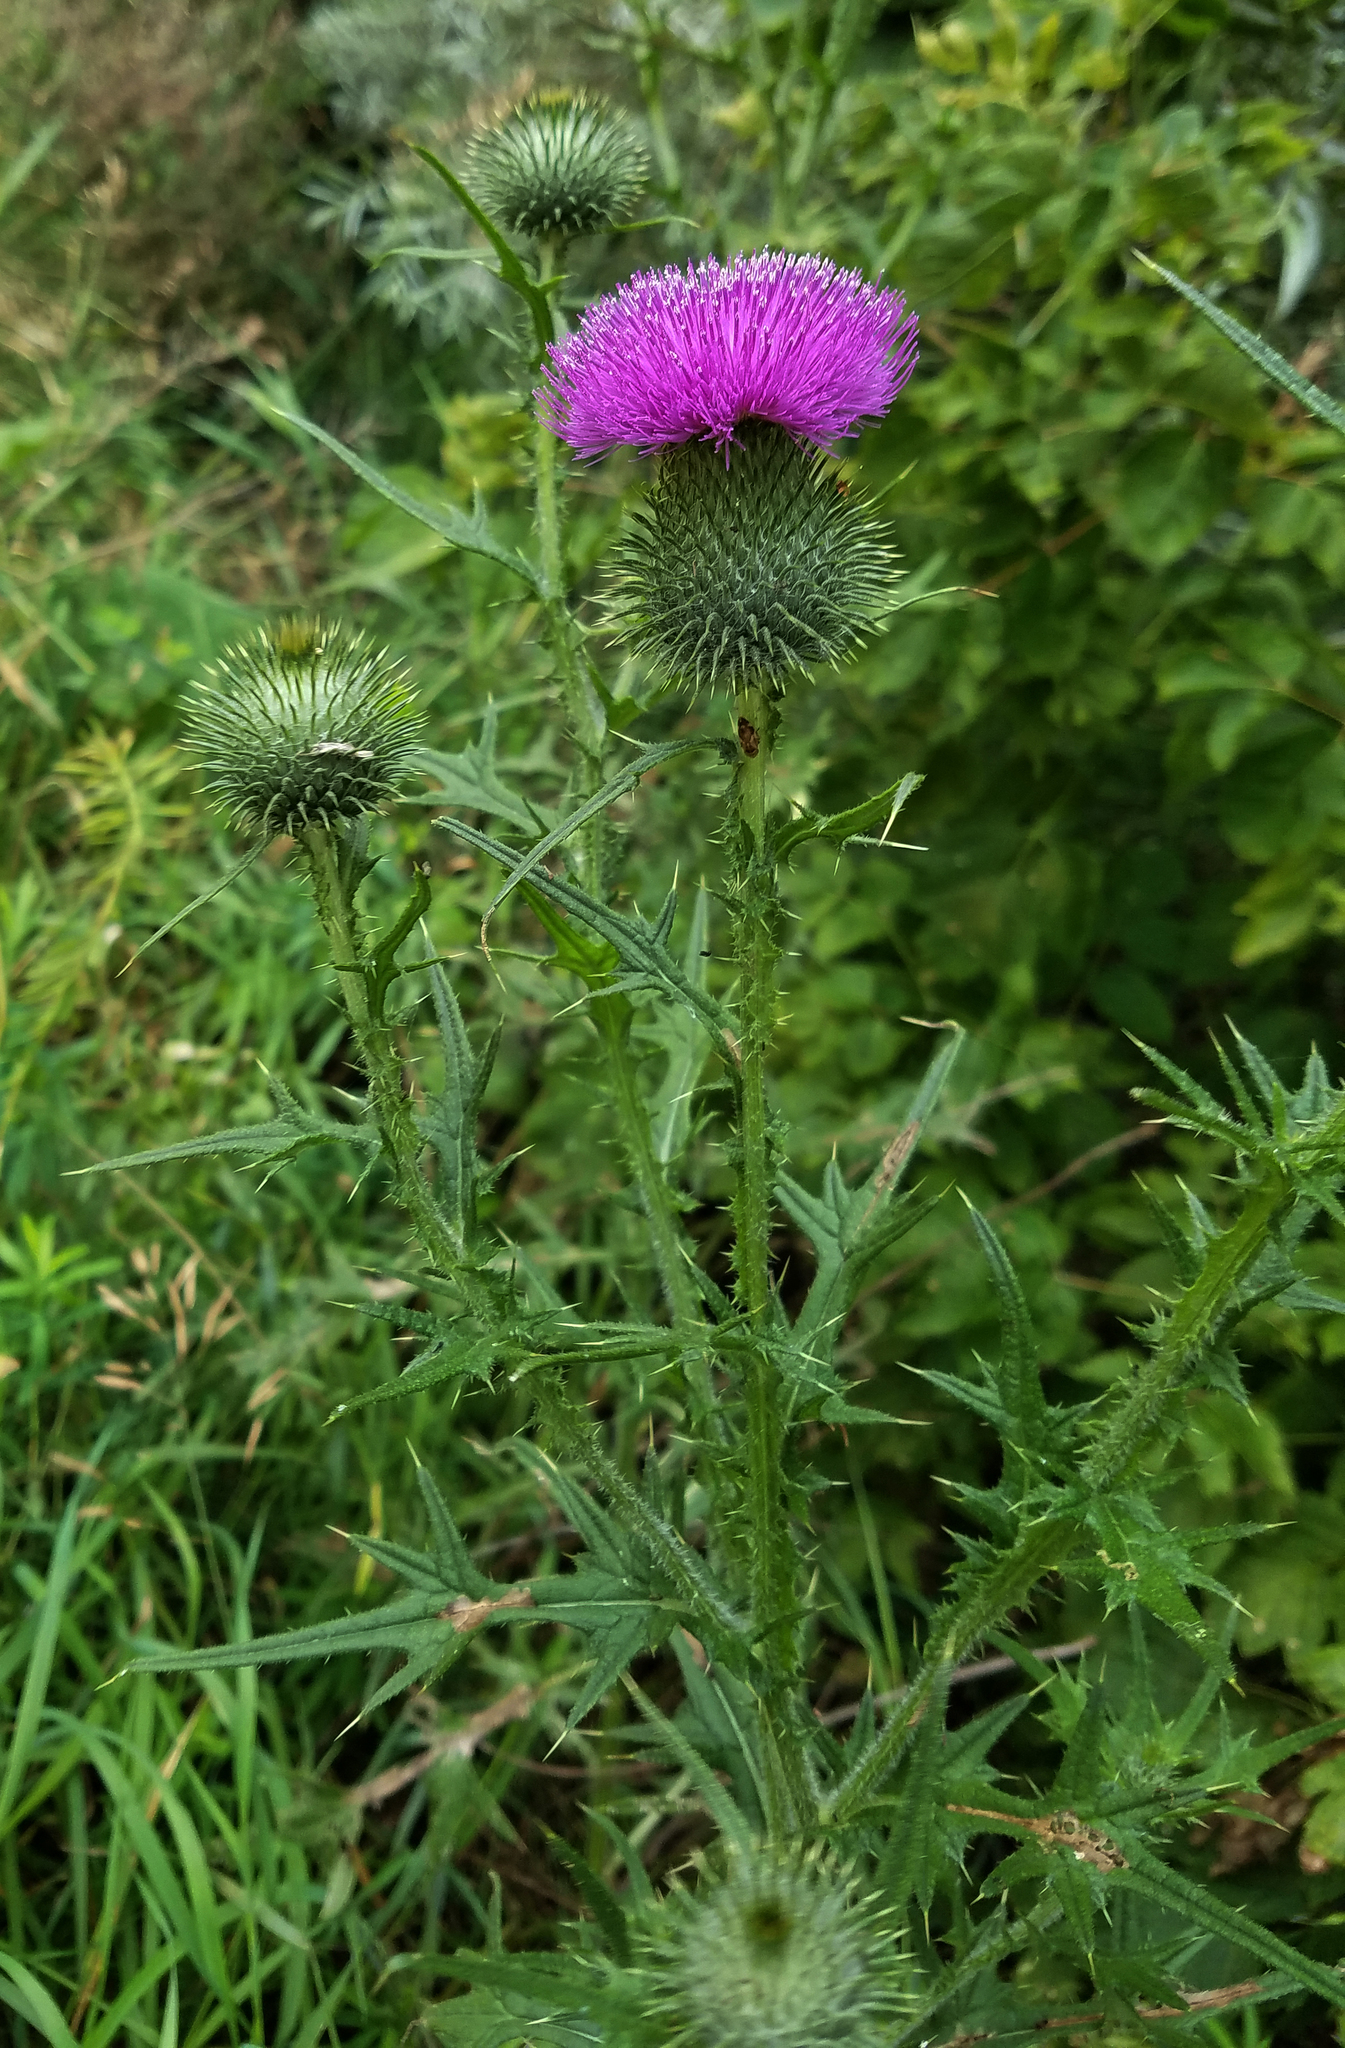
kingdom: Plantae
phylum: Tracheophyta
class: Magnoliopsida
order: Asterales
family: Asteraceae
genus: Cirsium
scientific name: Cirsium vulgare
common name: Bull thistle
